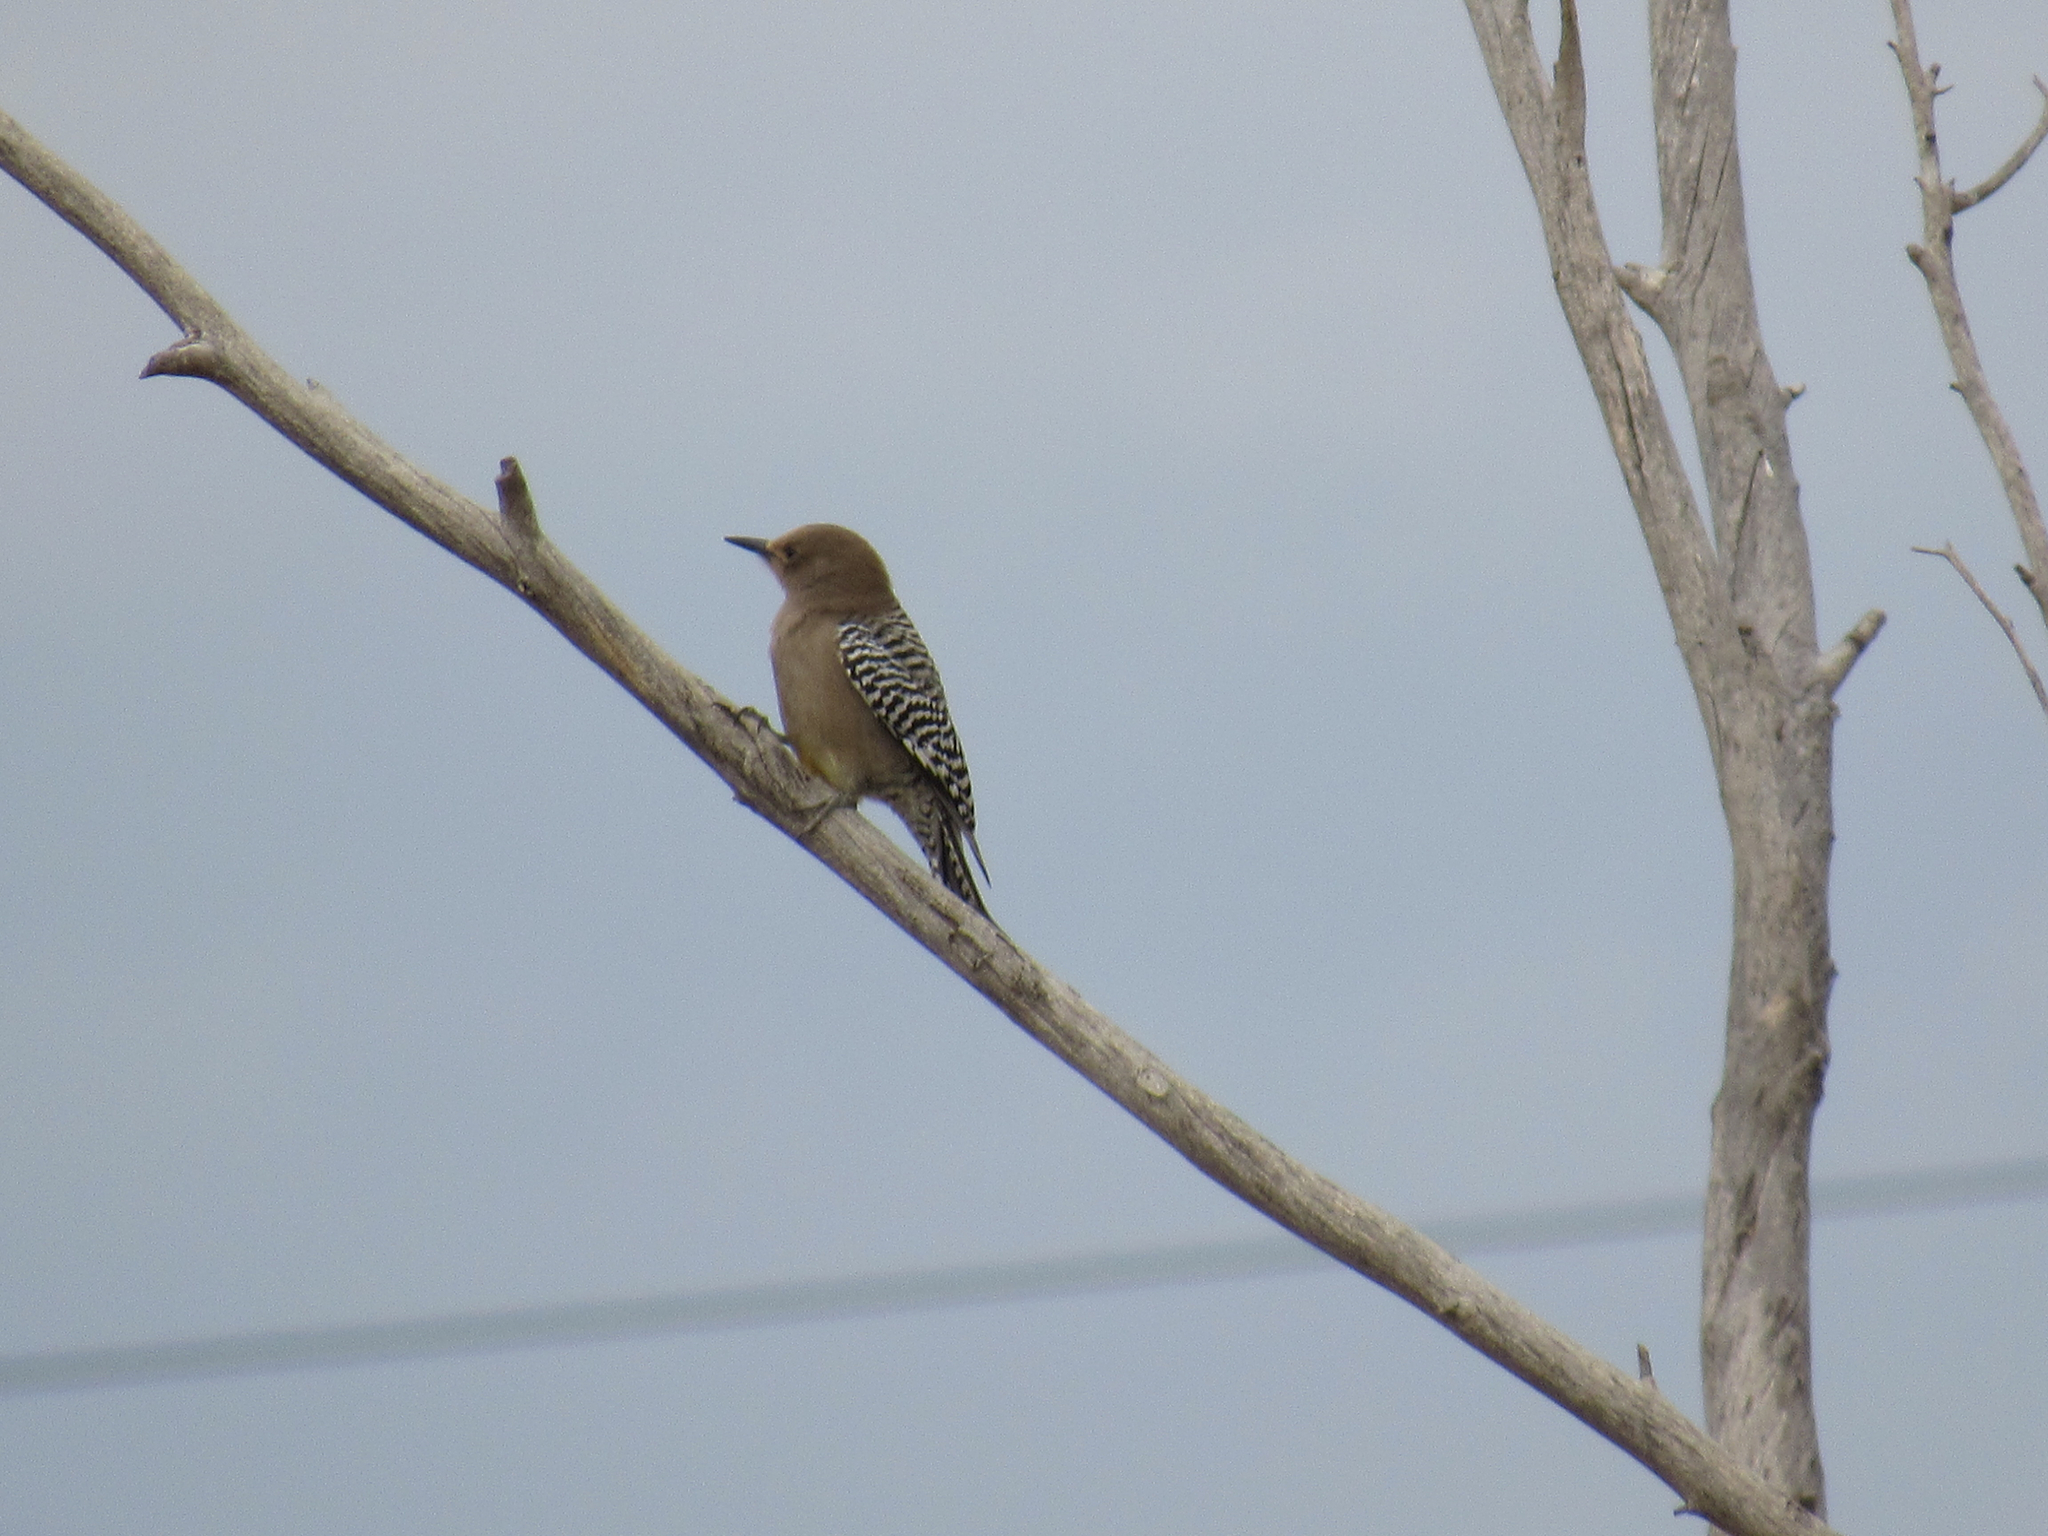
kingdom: Animalia
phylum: Chordata
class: Aves
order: Piciformes
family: Picidae
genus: Melanerpes
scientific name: Melanerpes uropygialis
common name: Gila woodpecker
